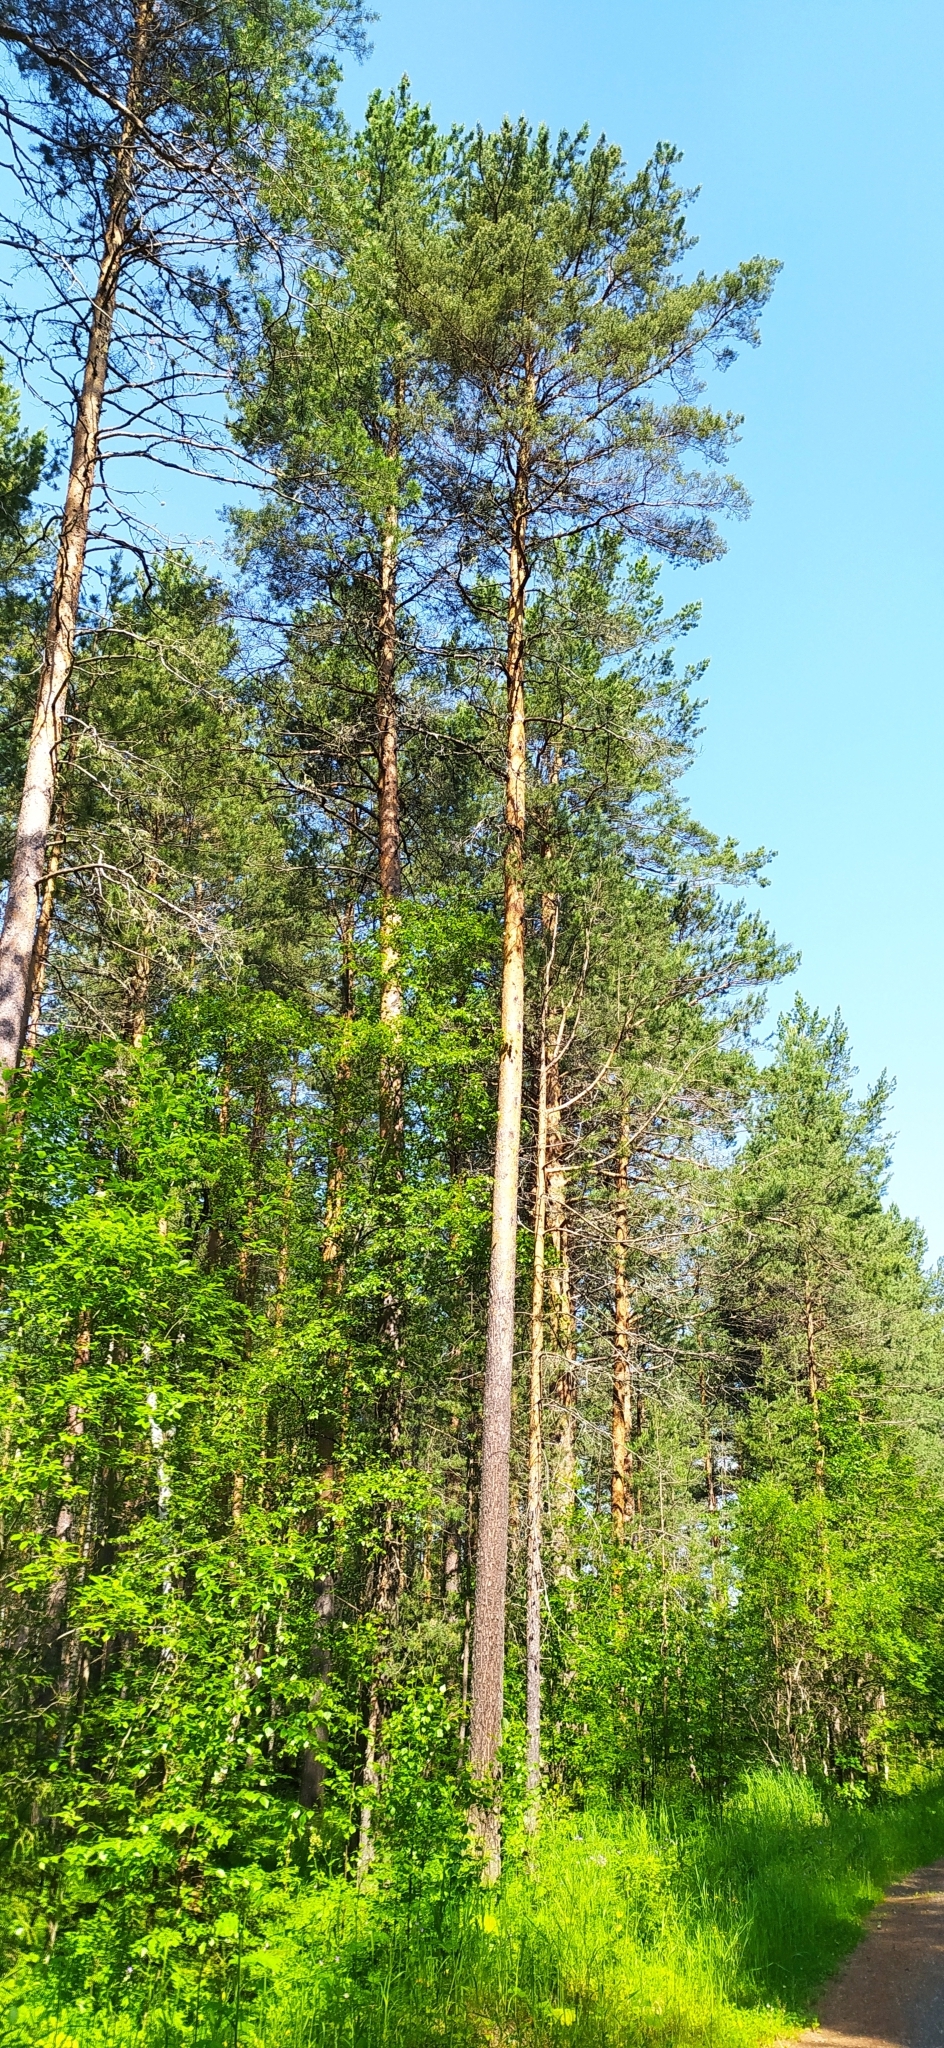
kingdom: Plantae
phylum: Tracheophyta
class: Pinopsida
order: Pinales
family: Pinaceae
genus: Pinus
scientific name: Pinus sylvestris
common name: Scots pine
